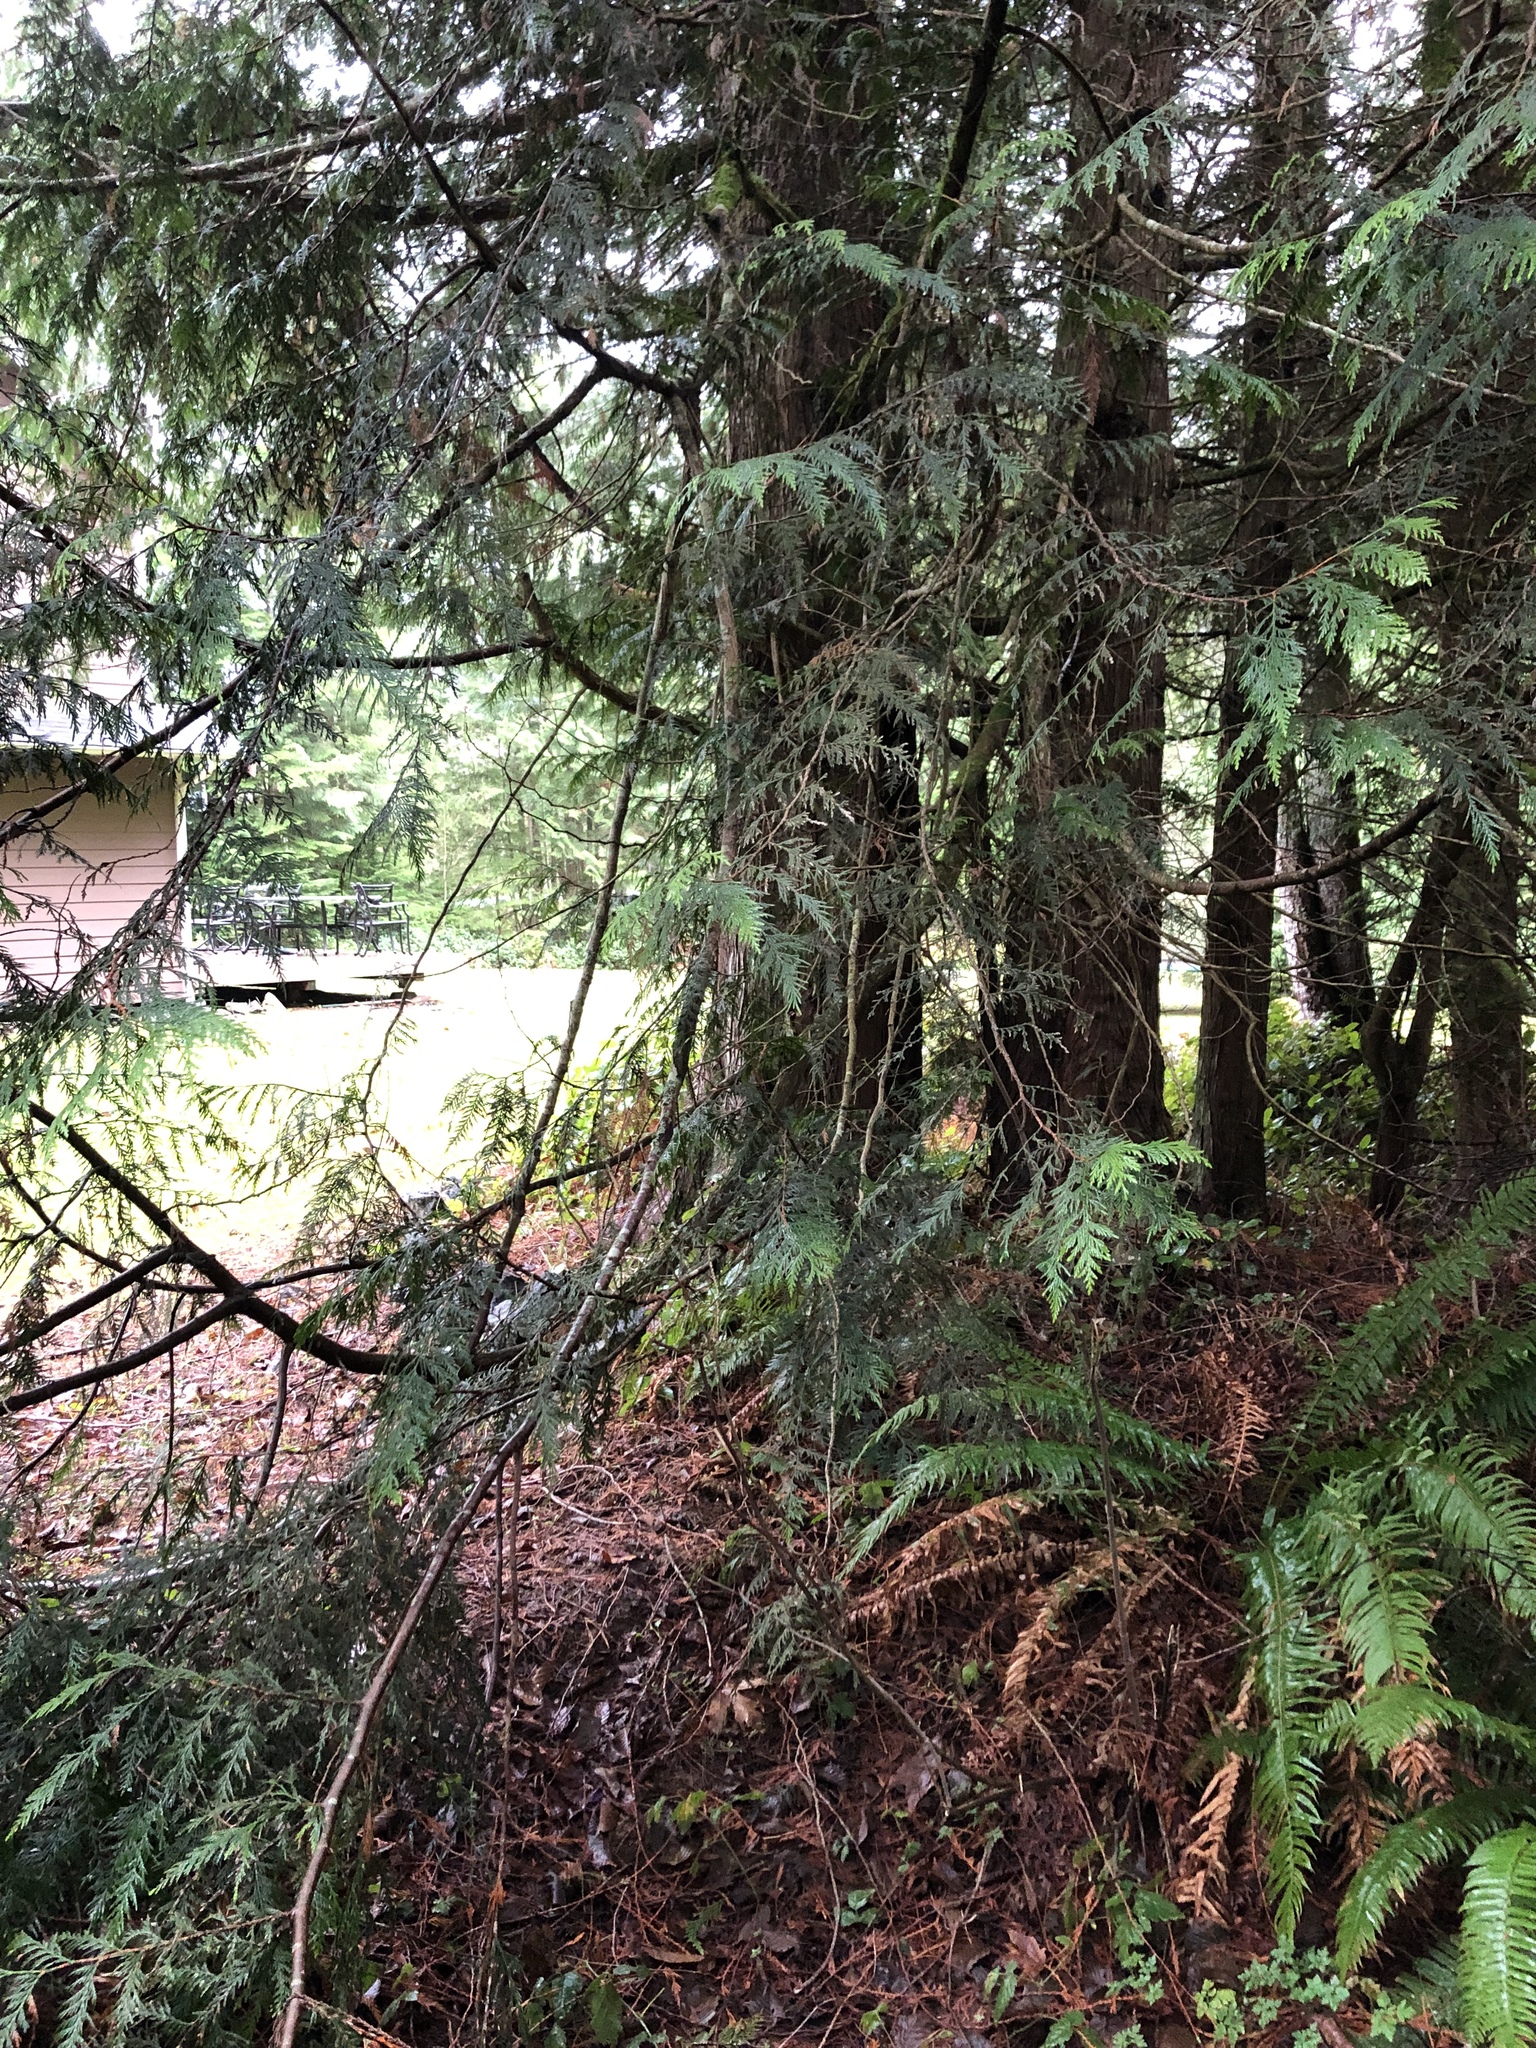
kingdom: Plantae
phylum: Tracheophyta
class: Pinopsida
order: Pinales
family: Cupressaceae
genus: Thuja
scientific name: Thuja plicata
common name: Western red-cedar
